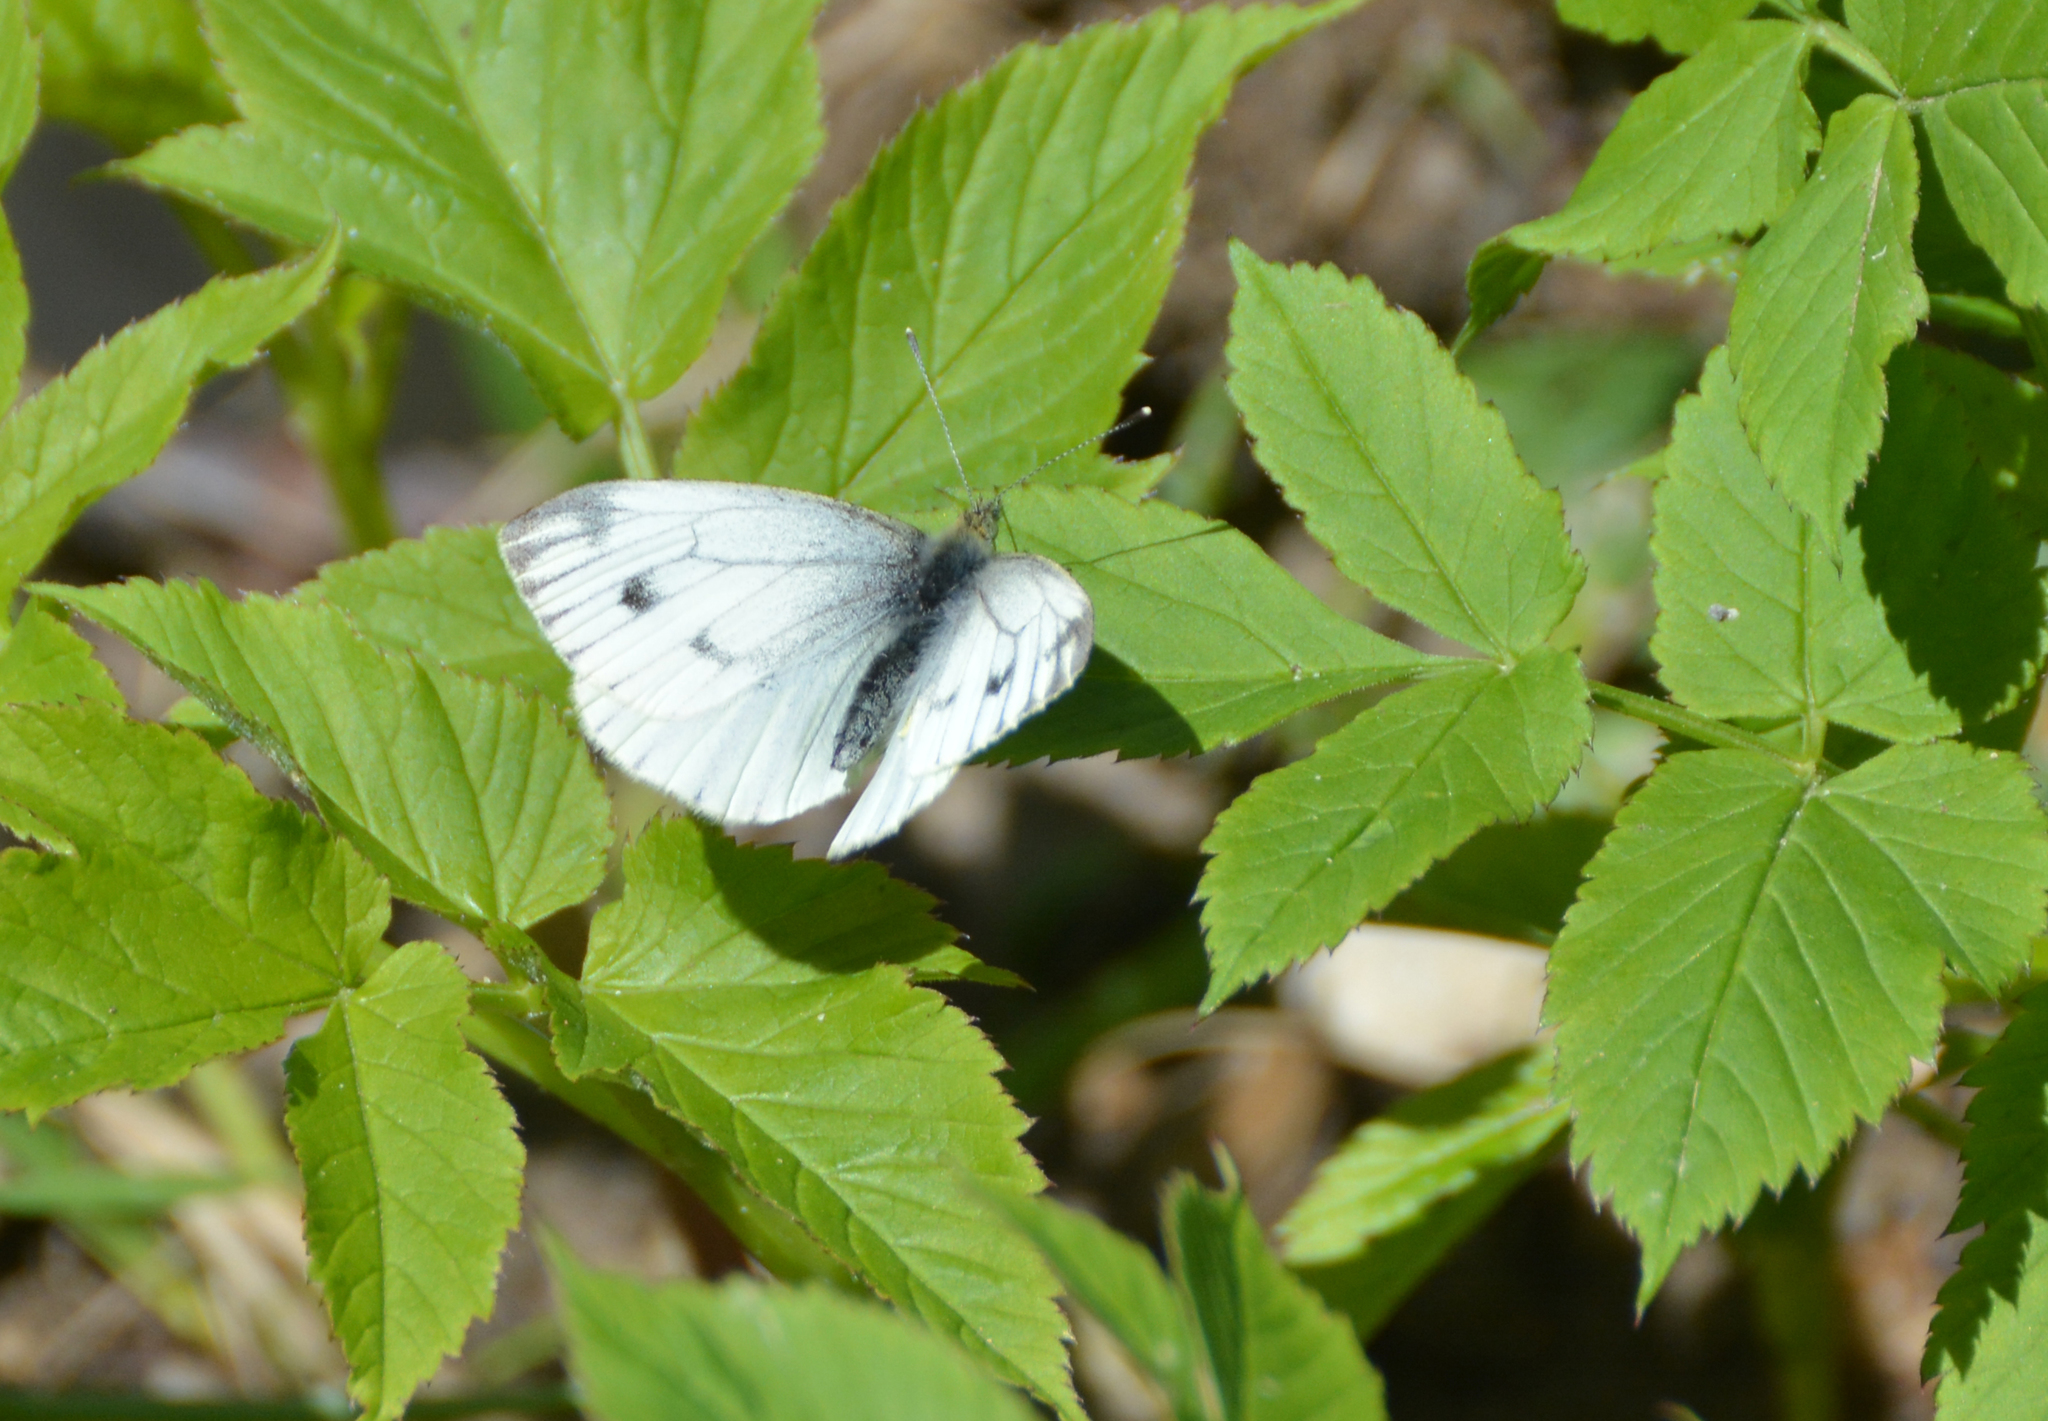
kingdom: Animalia
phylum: Arthropoda
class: Insecta
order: Lepidoptera
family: Pieridae
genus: Pieris
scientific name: Pieris napi
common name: Green-veined white
